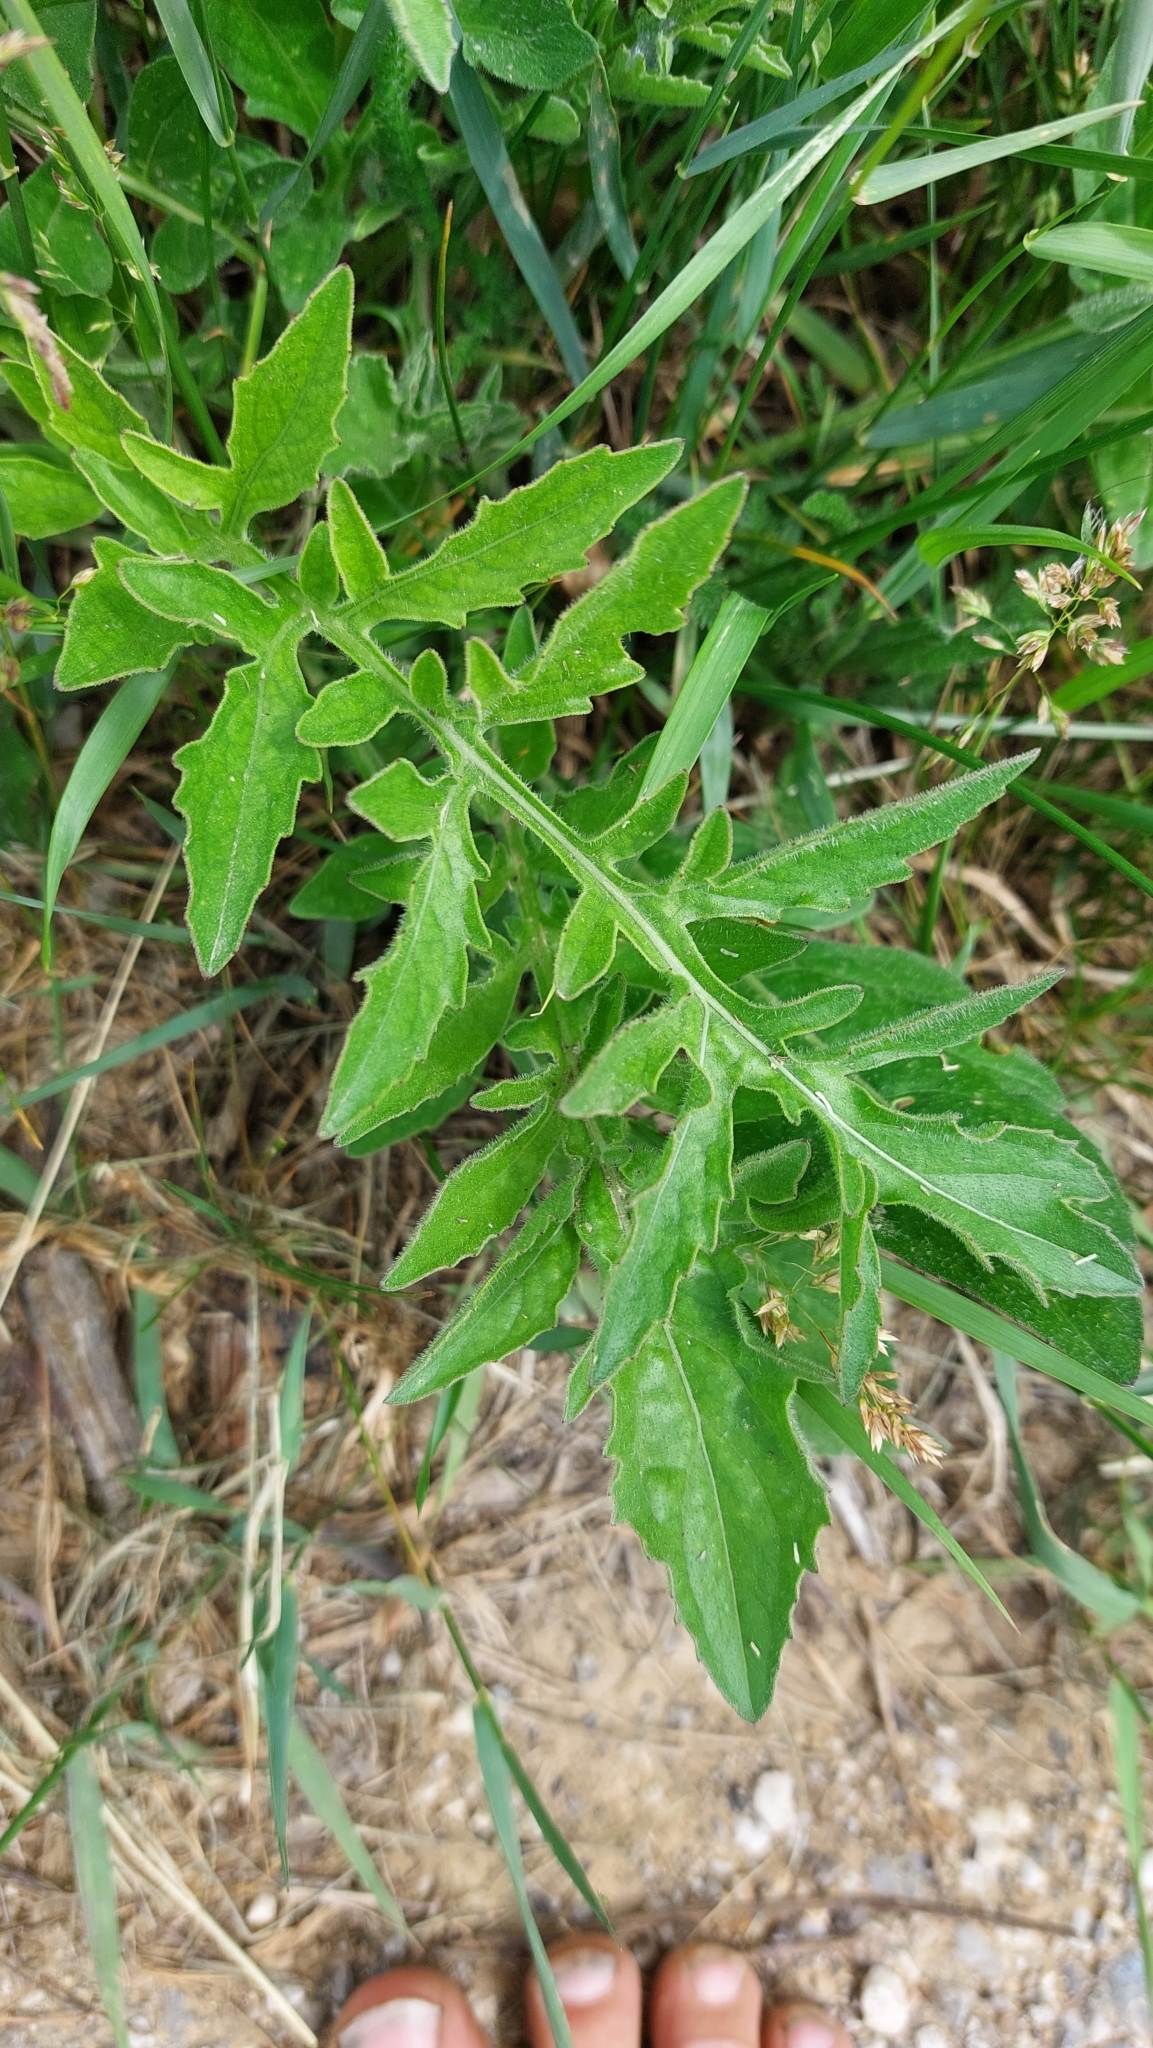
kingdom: Plantae
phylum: Tracheophyta
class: Magnoliopsida
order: Asterales
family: Asteraceae
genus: Centaurea
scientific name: Centaurea scabiosa
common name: Greater knapweed
